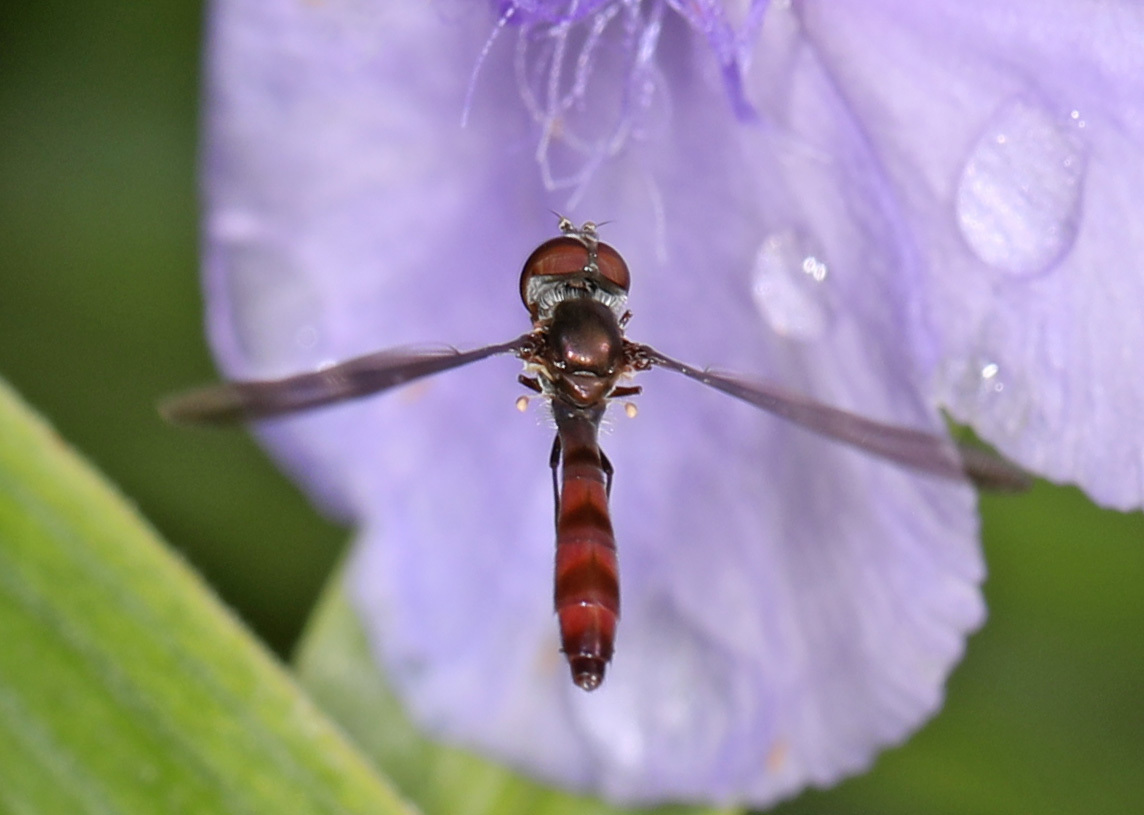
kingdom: Animalia
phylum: Arthropoda
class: Insecta
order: Diptera
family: Syrphidae
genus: Ocyptamus
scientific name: Ocyptamus fuscipennis
